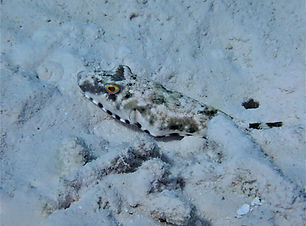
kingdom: Animalia
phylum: Chordata
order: Tetraodontiformes
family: Tetraodontidae
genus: Sphoeroides
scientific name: Sphoeroides spengleri
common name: Bandtail puffer
